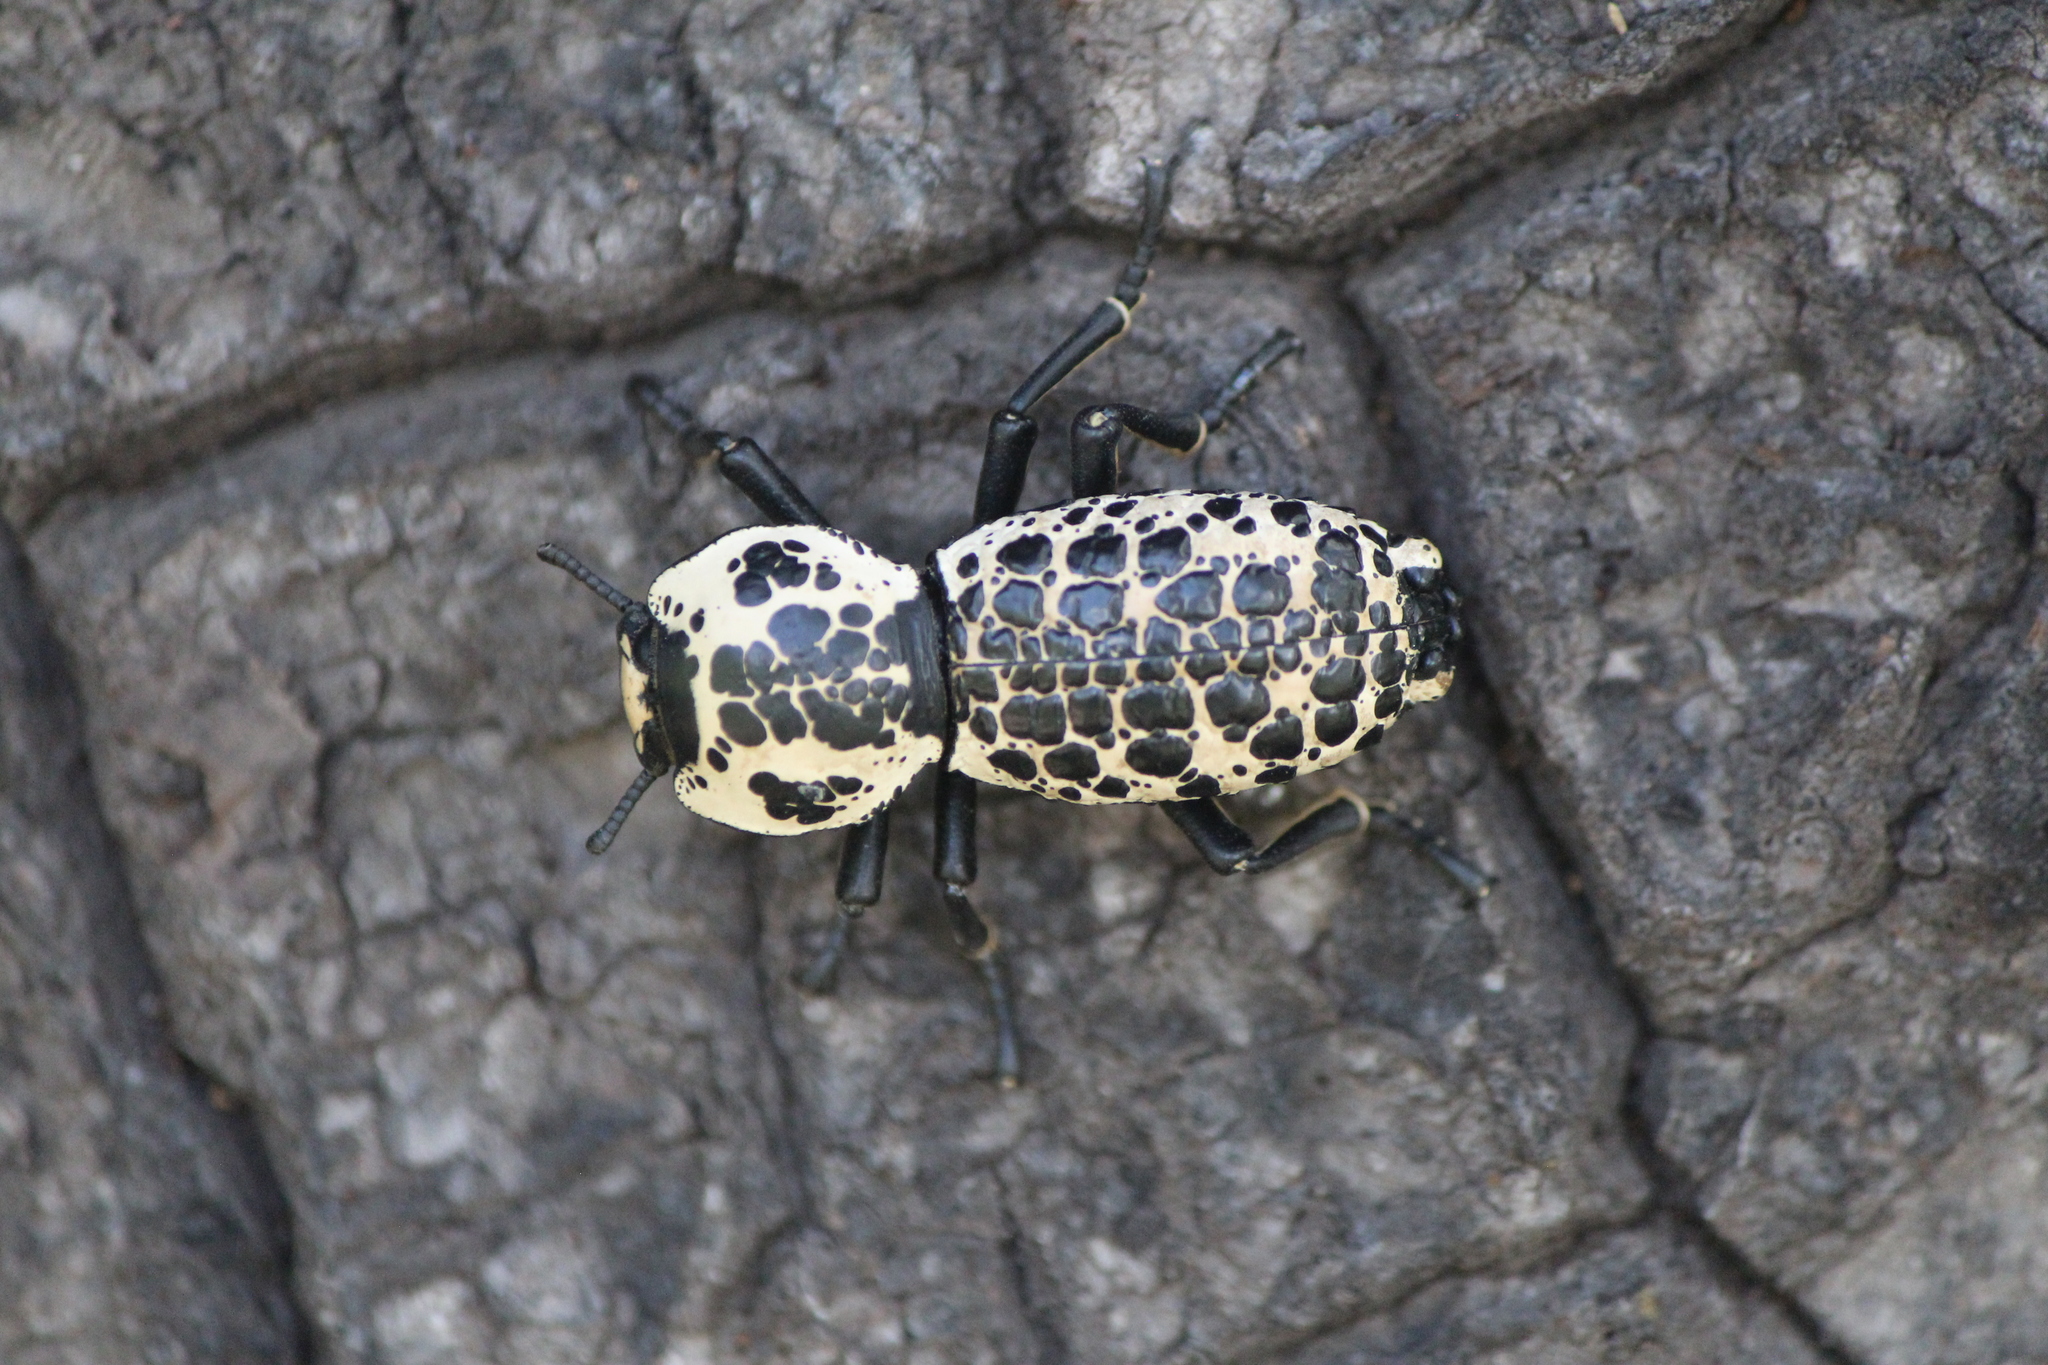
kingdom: Animalia
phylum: Arthropoda
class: Insecta
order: Coleoptera
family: Zopheridae
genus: Zopherus
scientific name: Zopherus nodulosus
